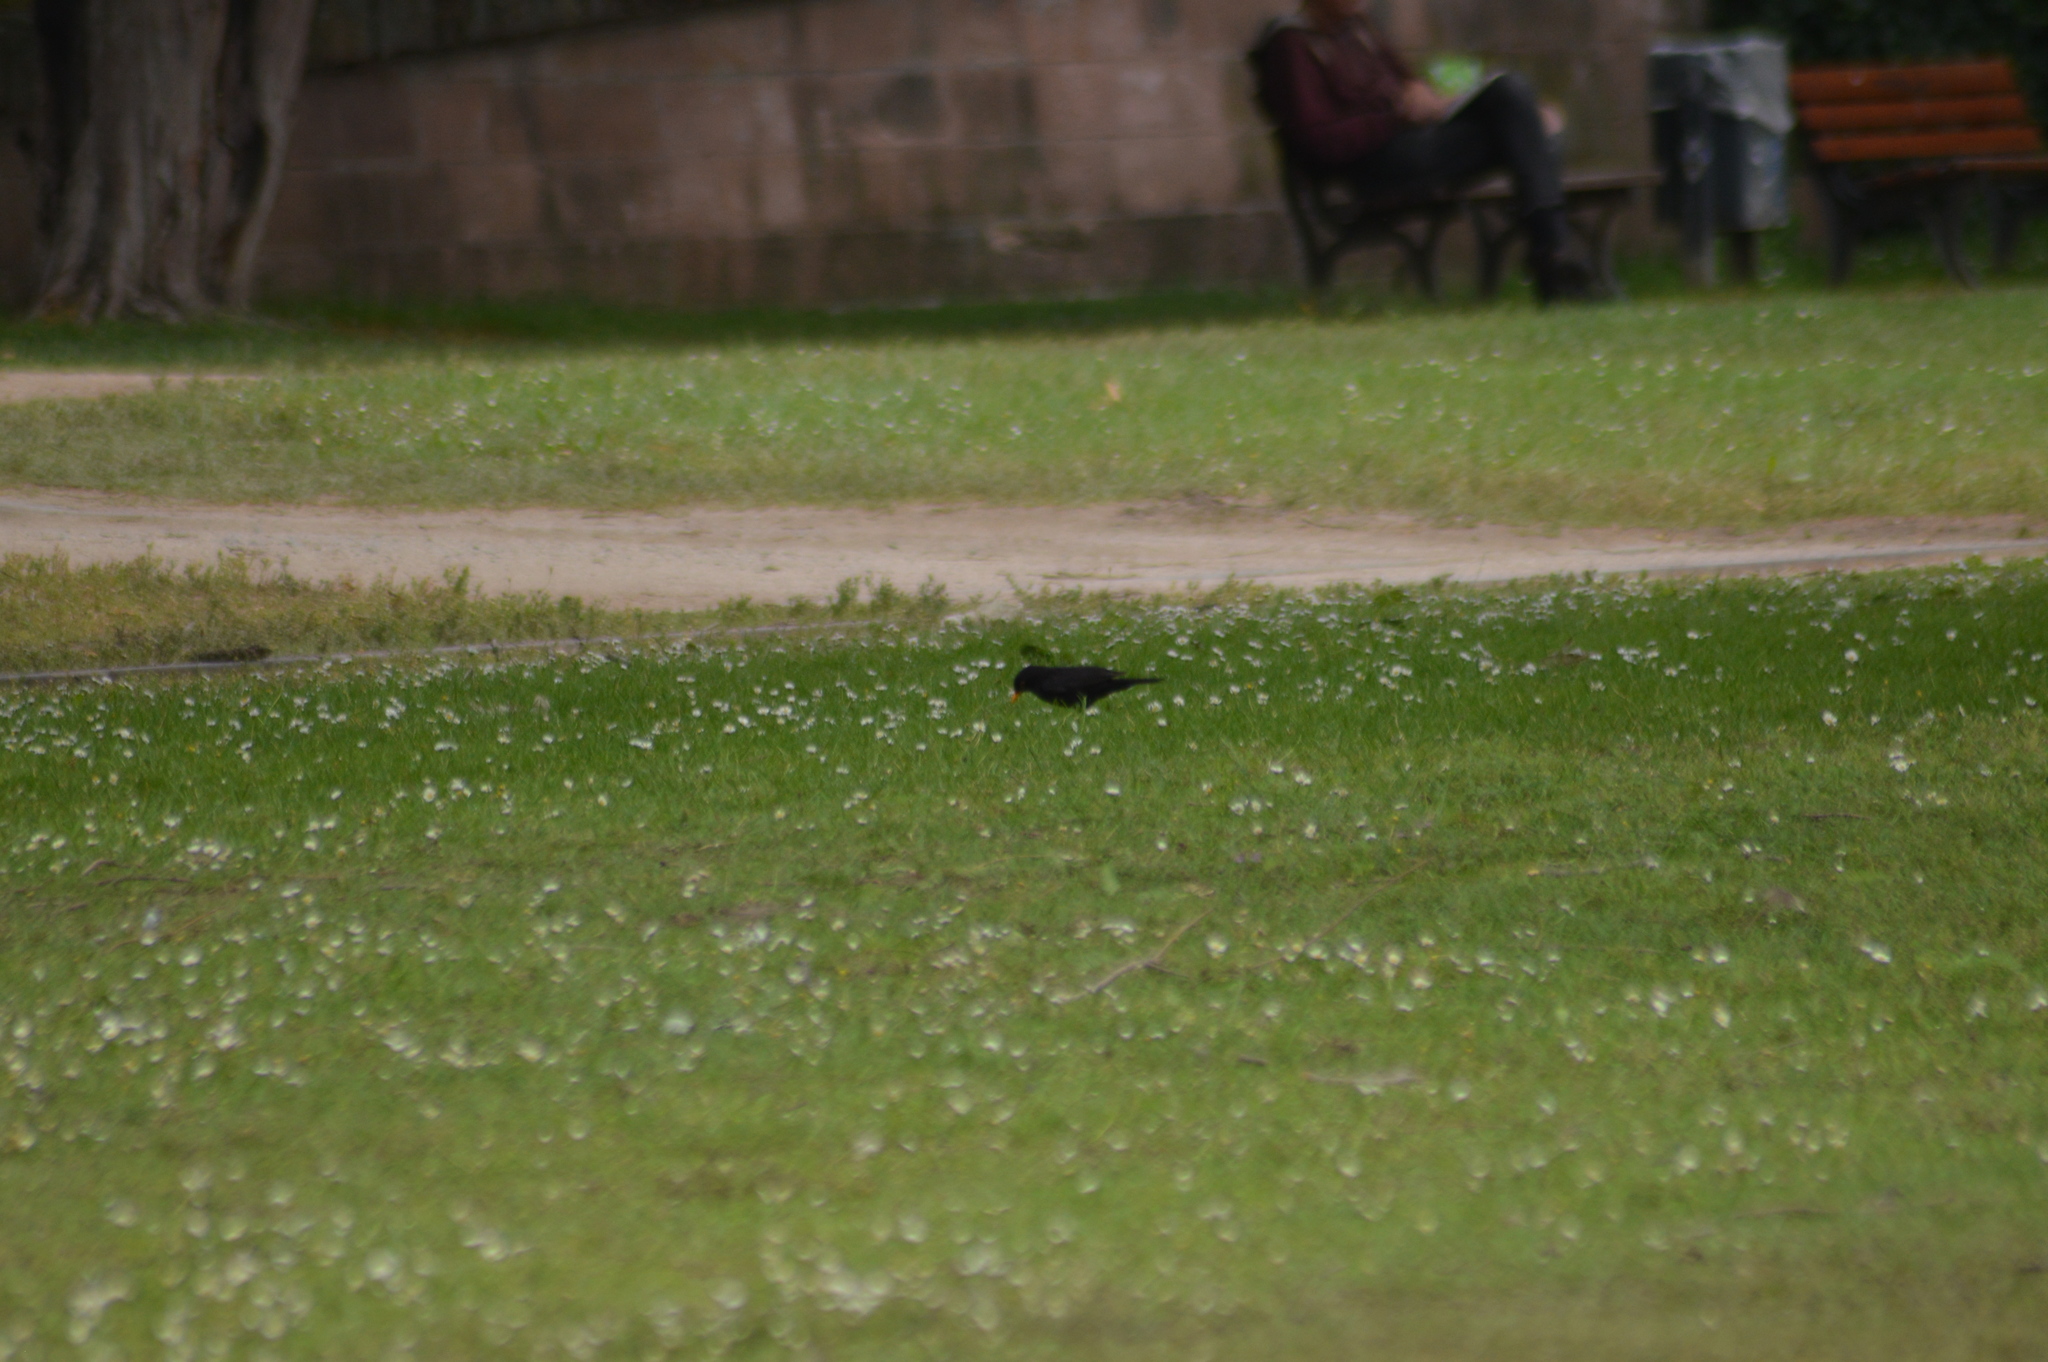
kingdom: Animalia
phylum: Chordata
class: Aves
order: Passeriformes
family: Turdidae
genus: Turdus
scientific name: Turdus merula
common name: Common blackbird
